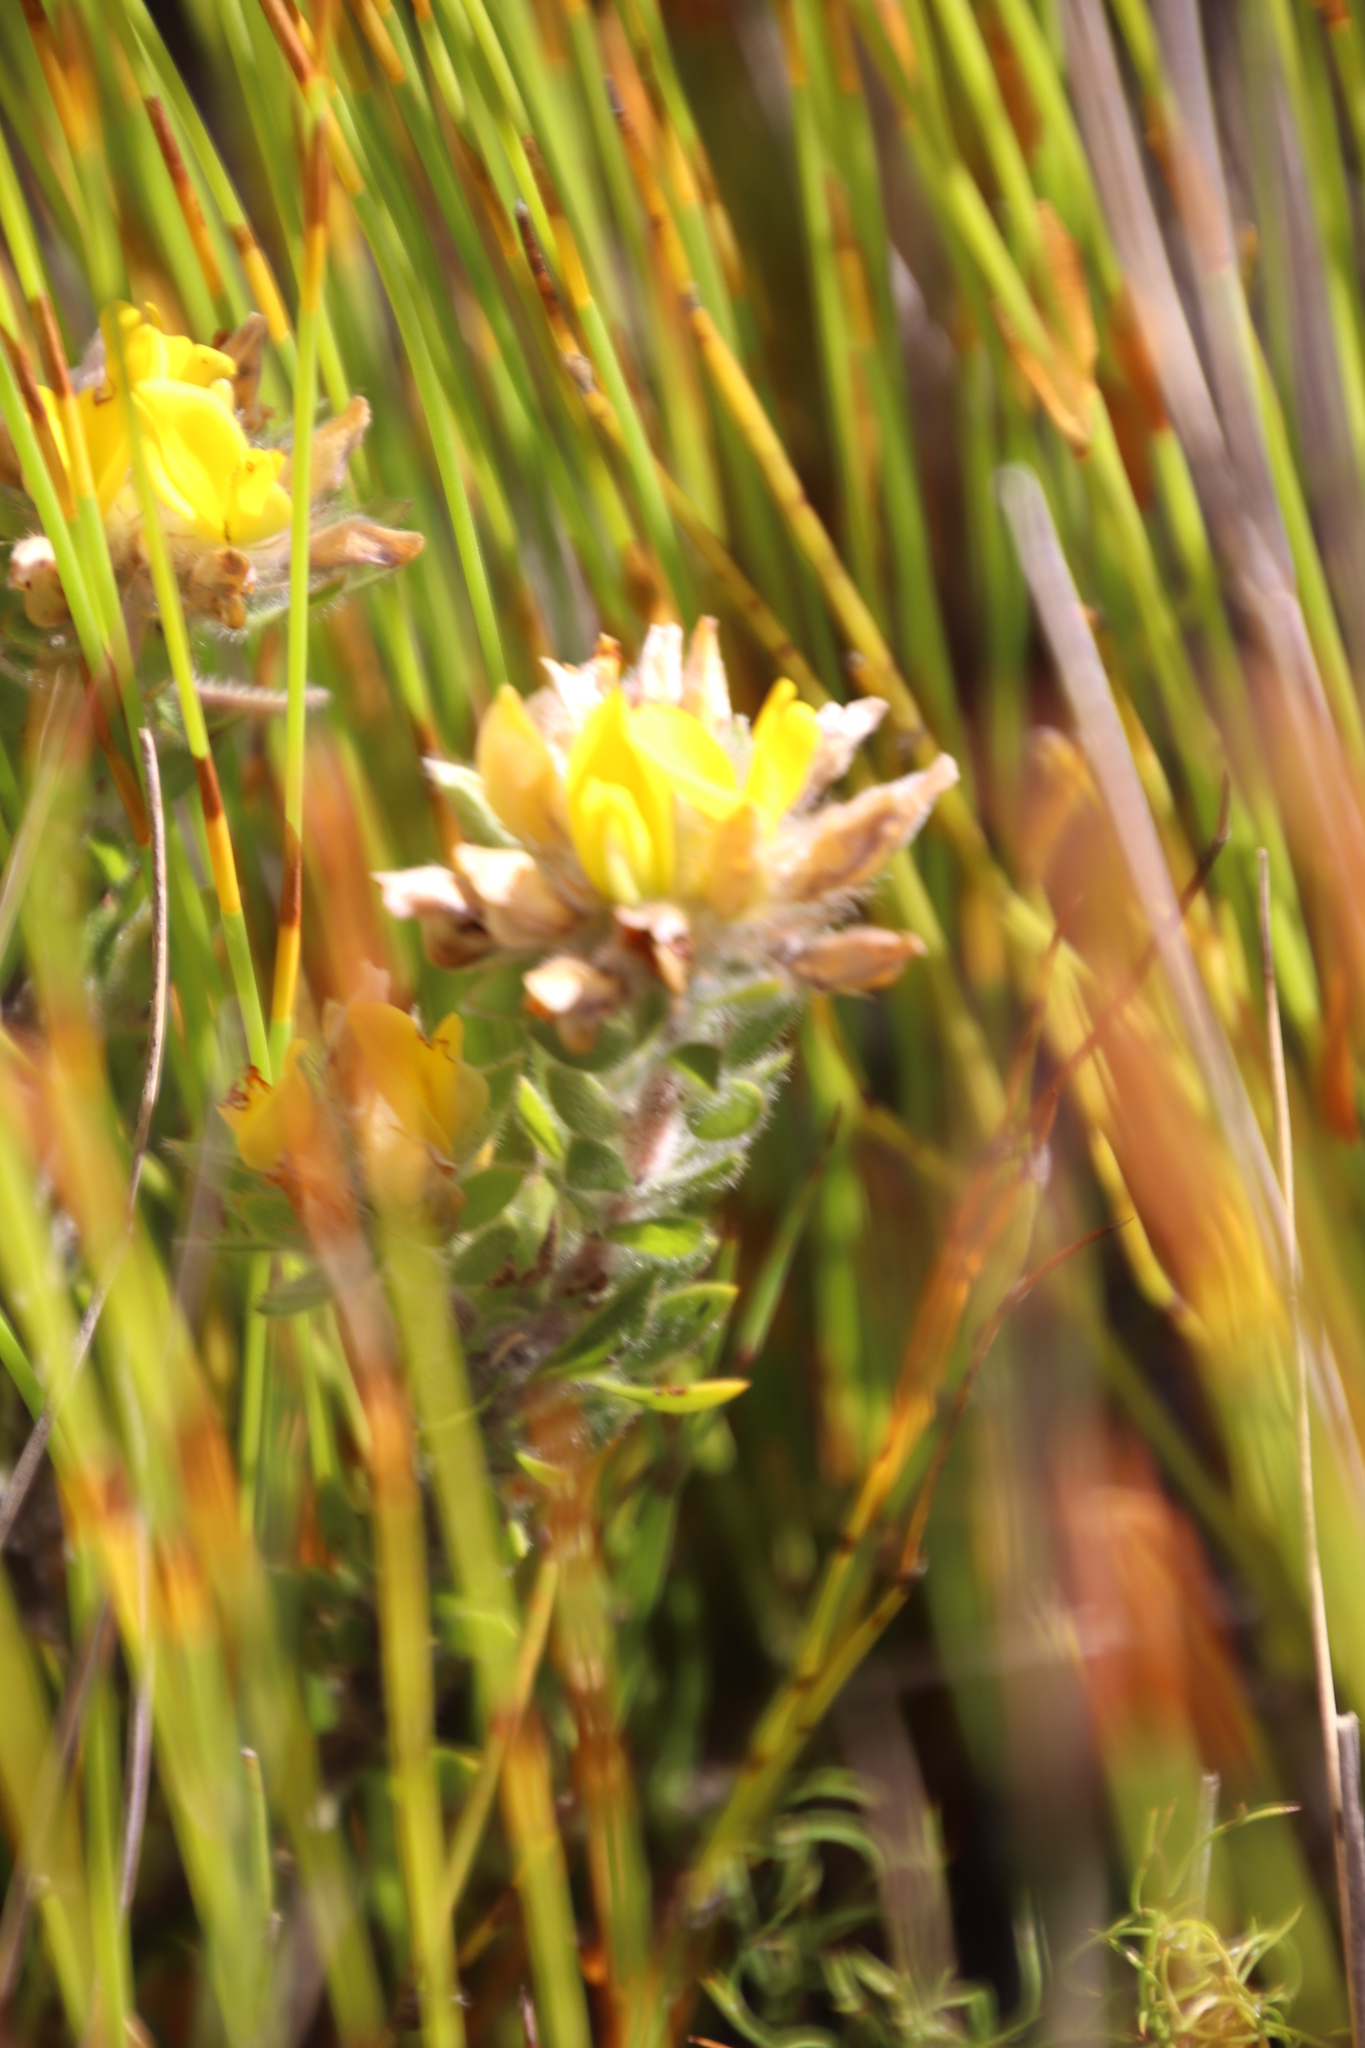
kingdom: Plantae
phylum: Tracheophyta
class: Magnoliopsida
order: Fabales
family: Fabaceae
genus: Aspalathus
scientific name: Aspalathus aspalathoides
